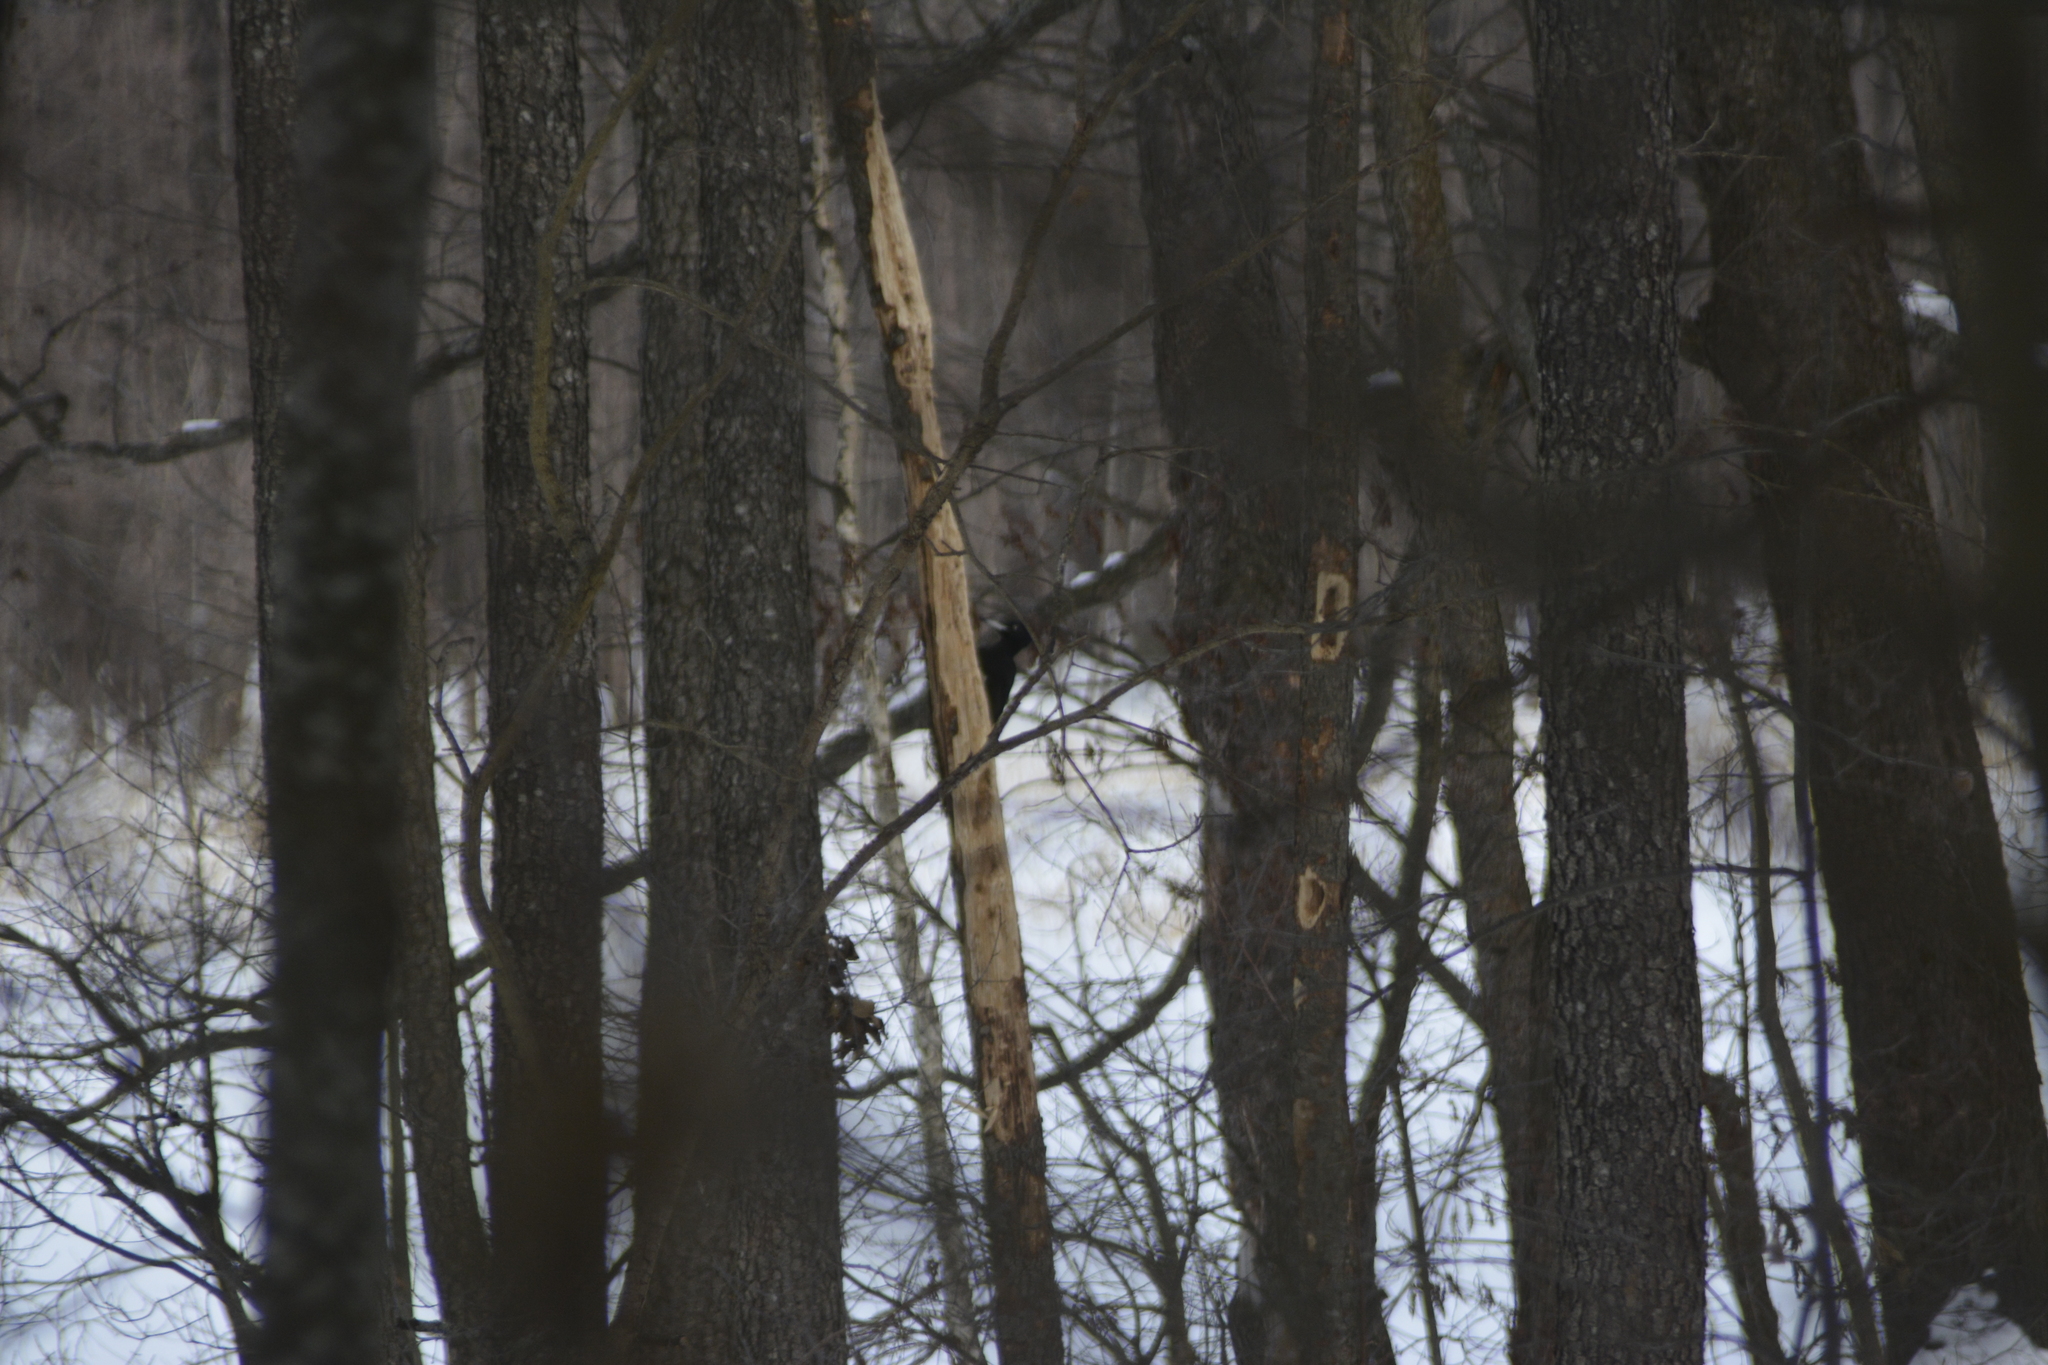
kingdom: Animalia
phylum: Chordata
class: Aves
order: Piciformes
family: Picidae
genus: Dryocopus
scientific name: Dryocopus martius
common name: Black woodpecker
